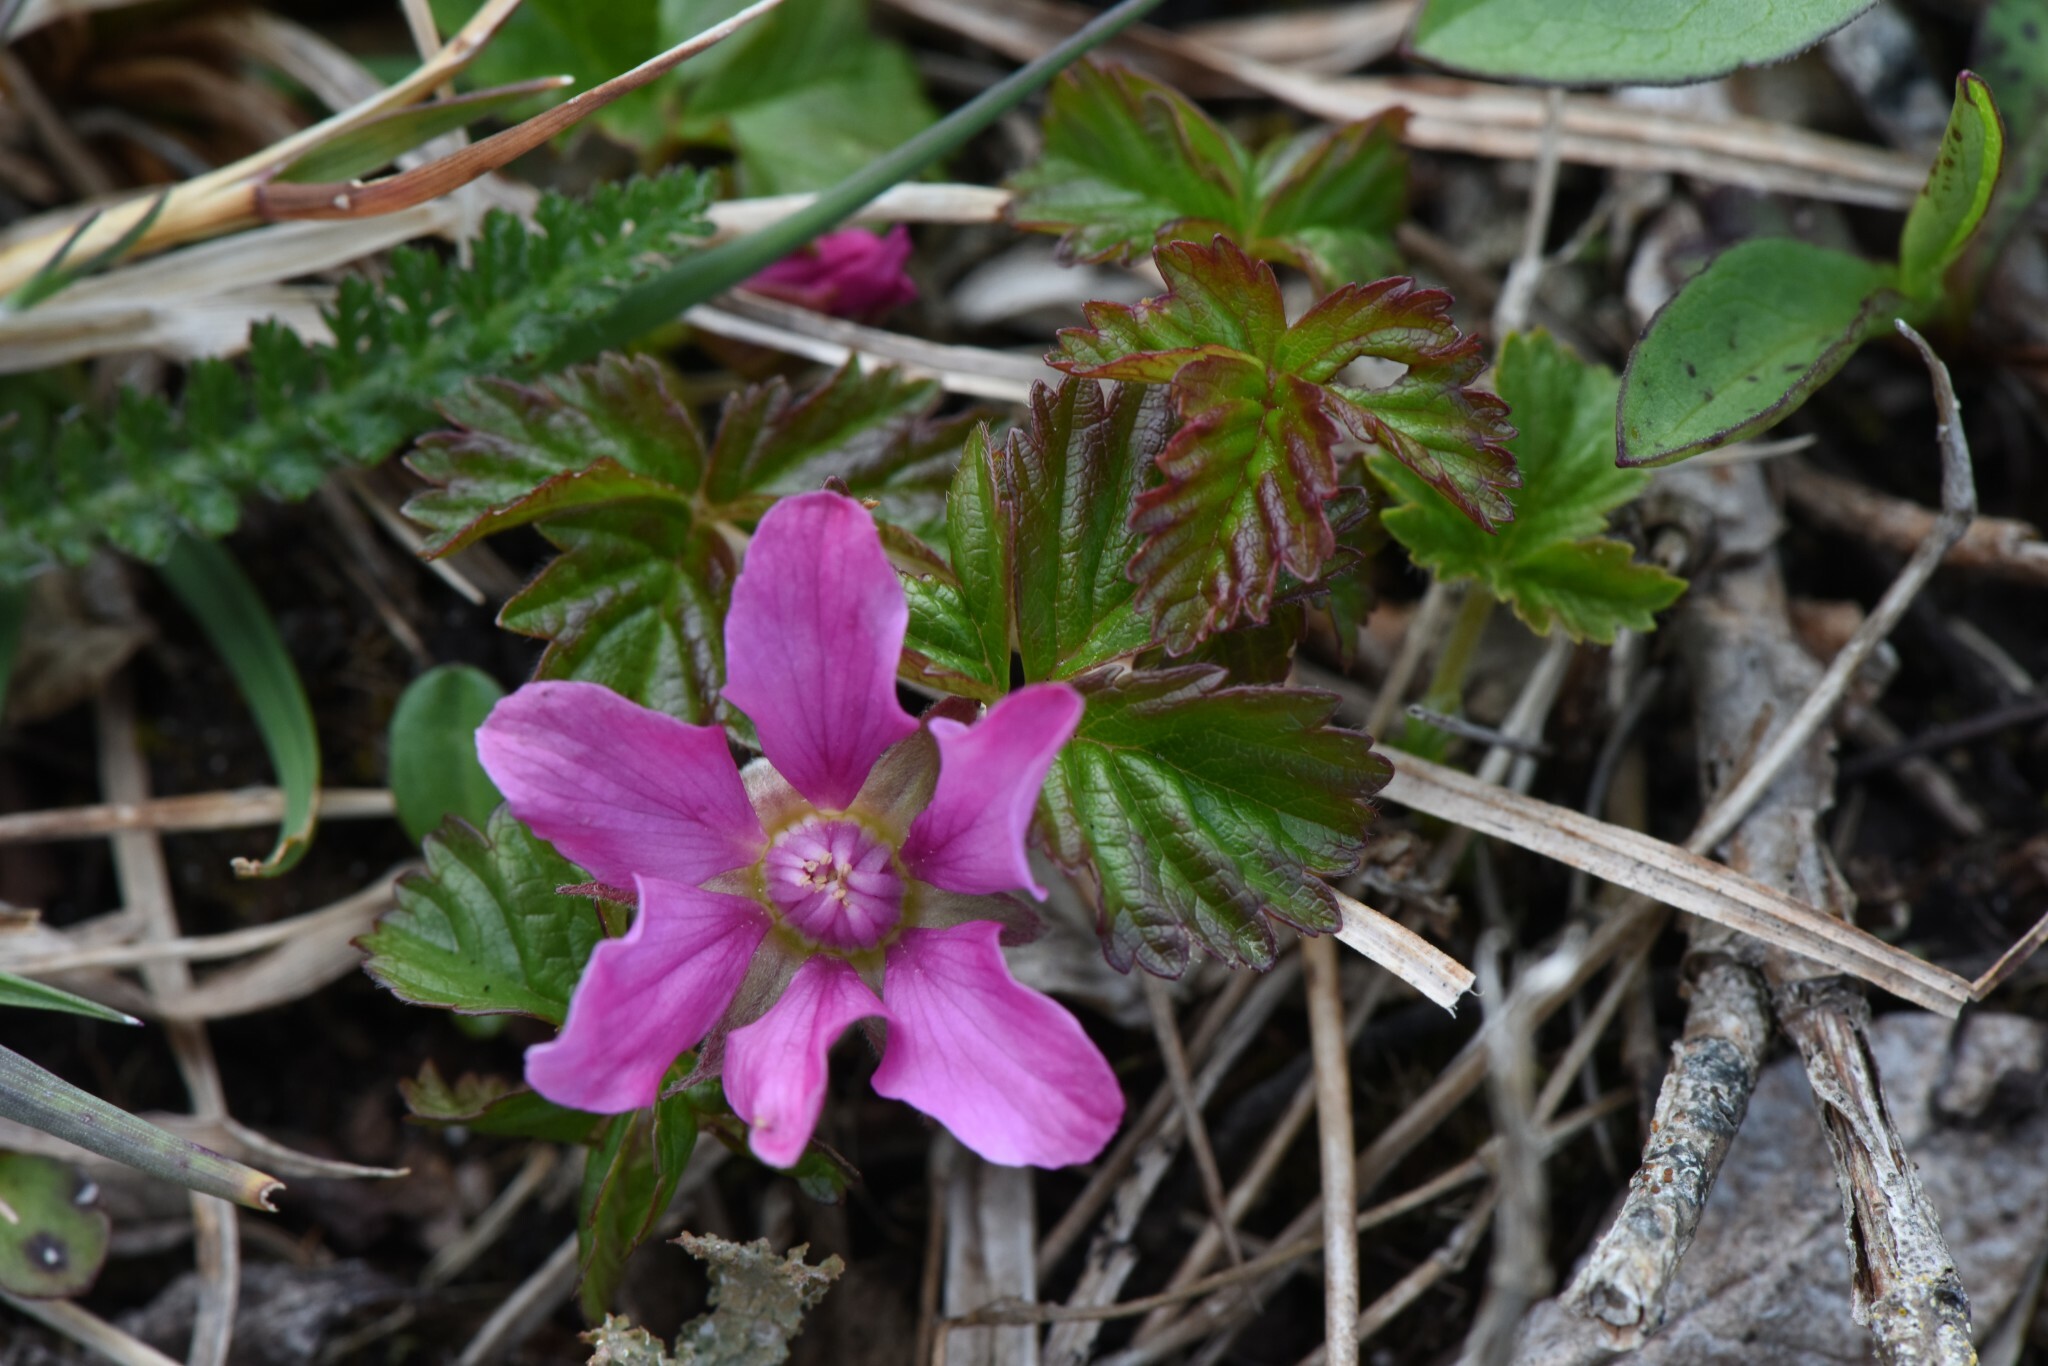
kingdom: Plantae
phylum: Tracheophyta
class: Magnoliopsida
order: Rosales
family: Rosaceae
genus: Rubus
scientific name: Rubus arcticus
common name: Arctic bramble
